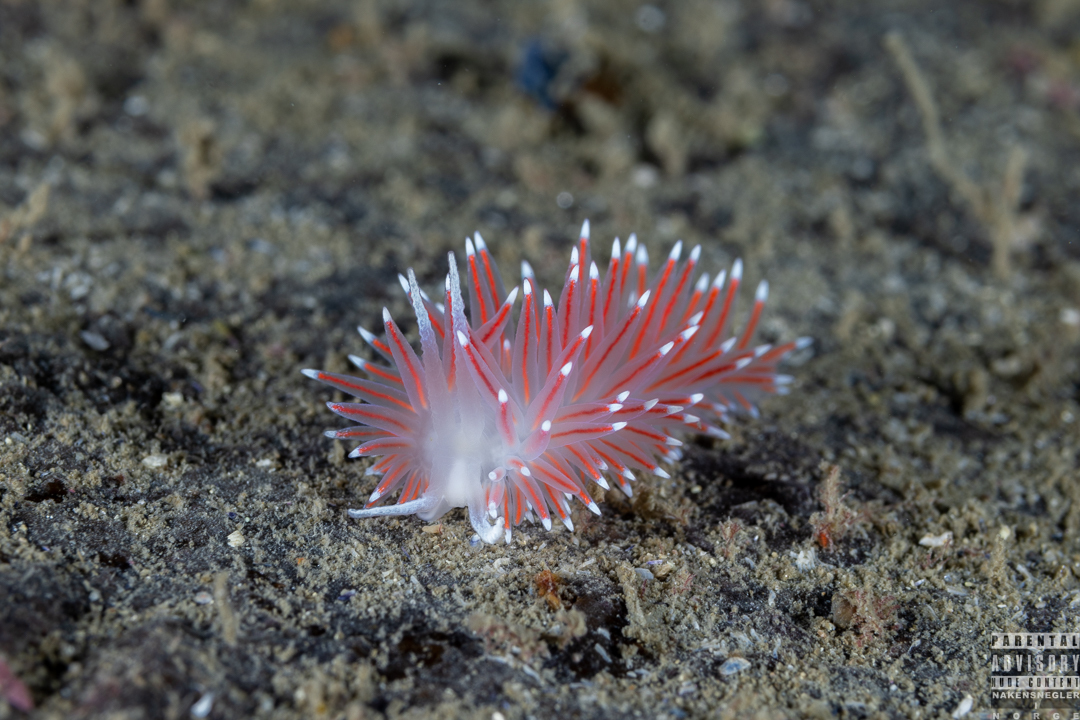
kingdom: Animalia
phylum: Mollusca
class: Gastropoda
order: Nudibranchia
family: Flabellinidae
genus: Carronella
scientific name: Carronella pellucida
